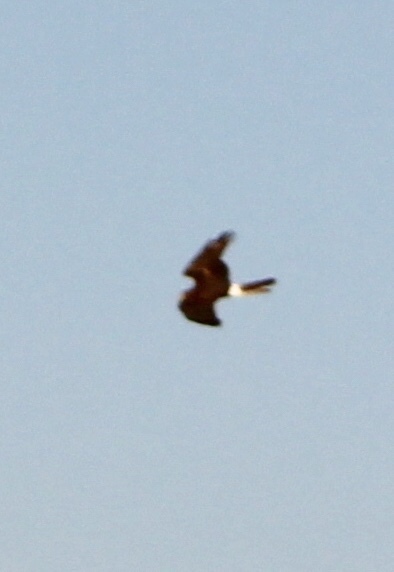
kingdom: Animalia
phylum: Chordata
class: Aves
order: Accipitriformes
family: Accipitridae
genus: Circus
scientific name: Circus cyaneus
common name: Hen harrier
